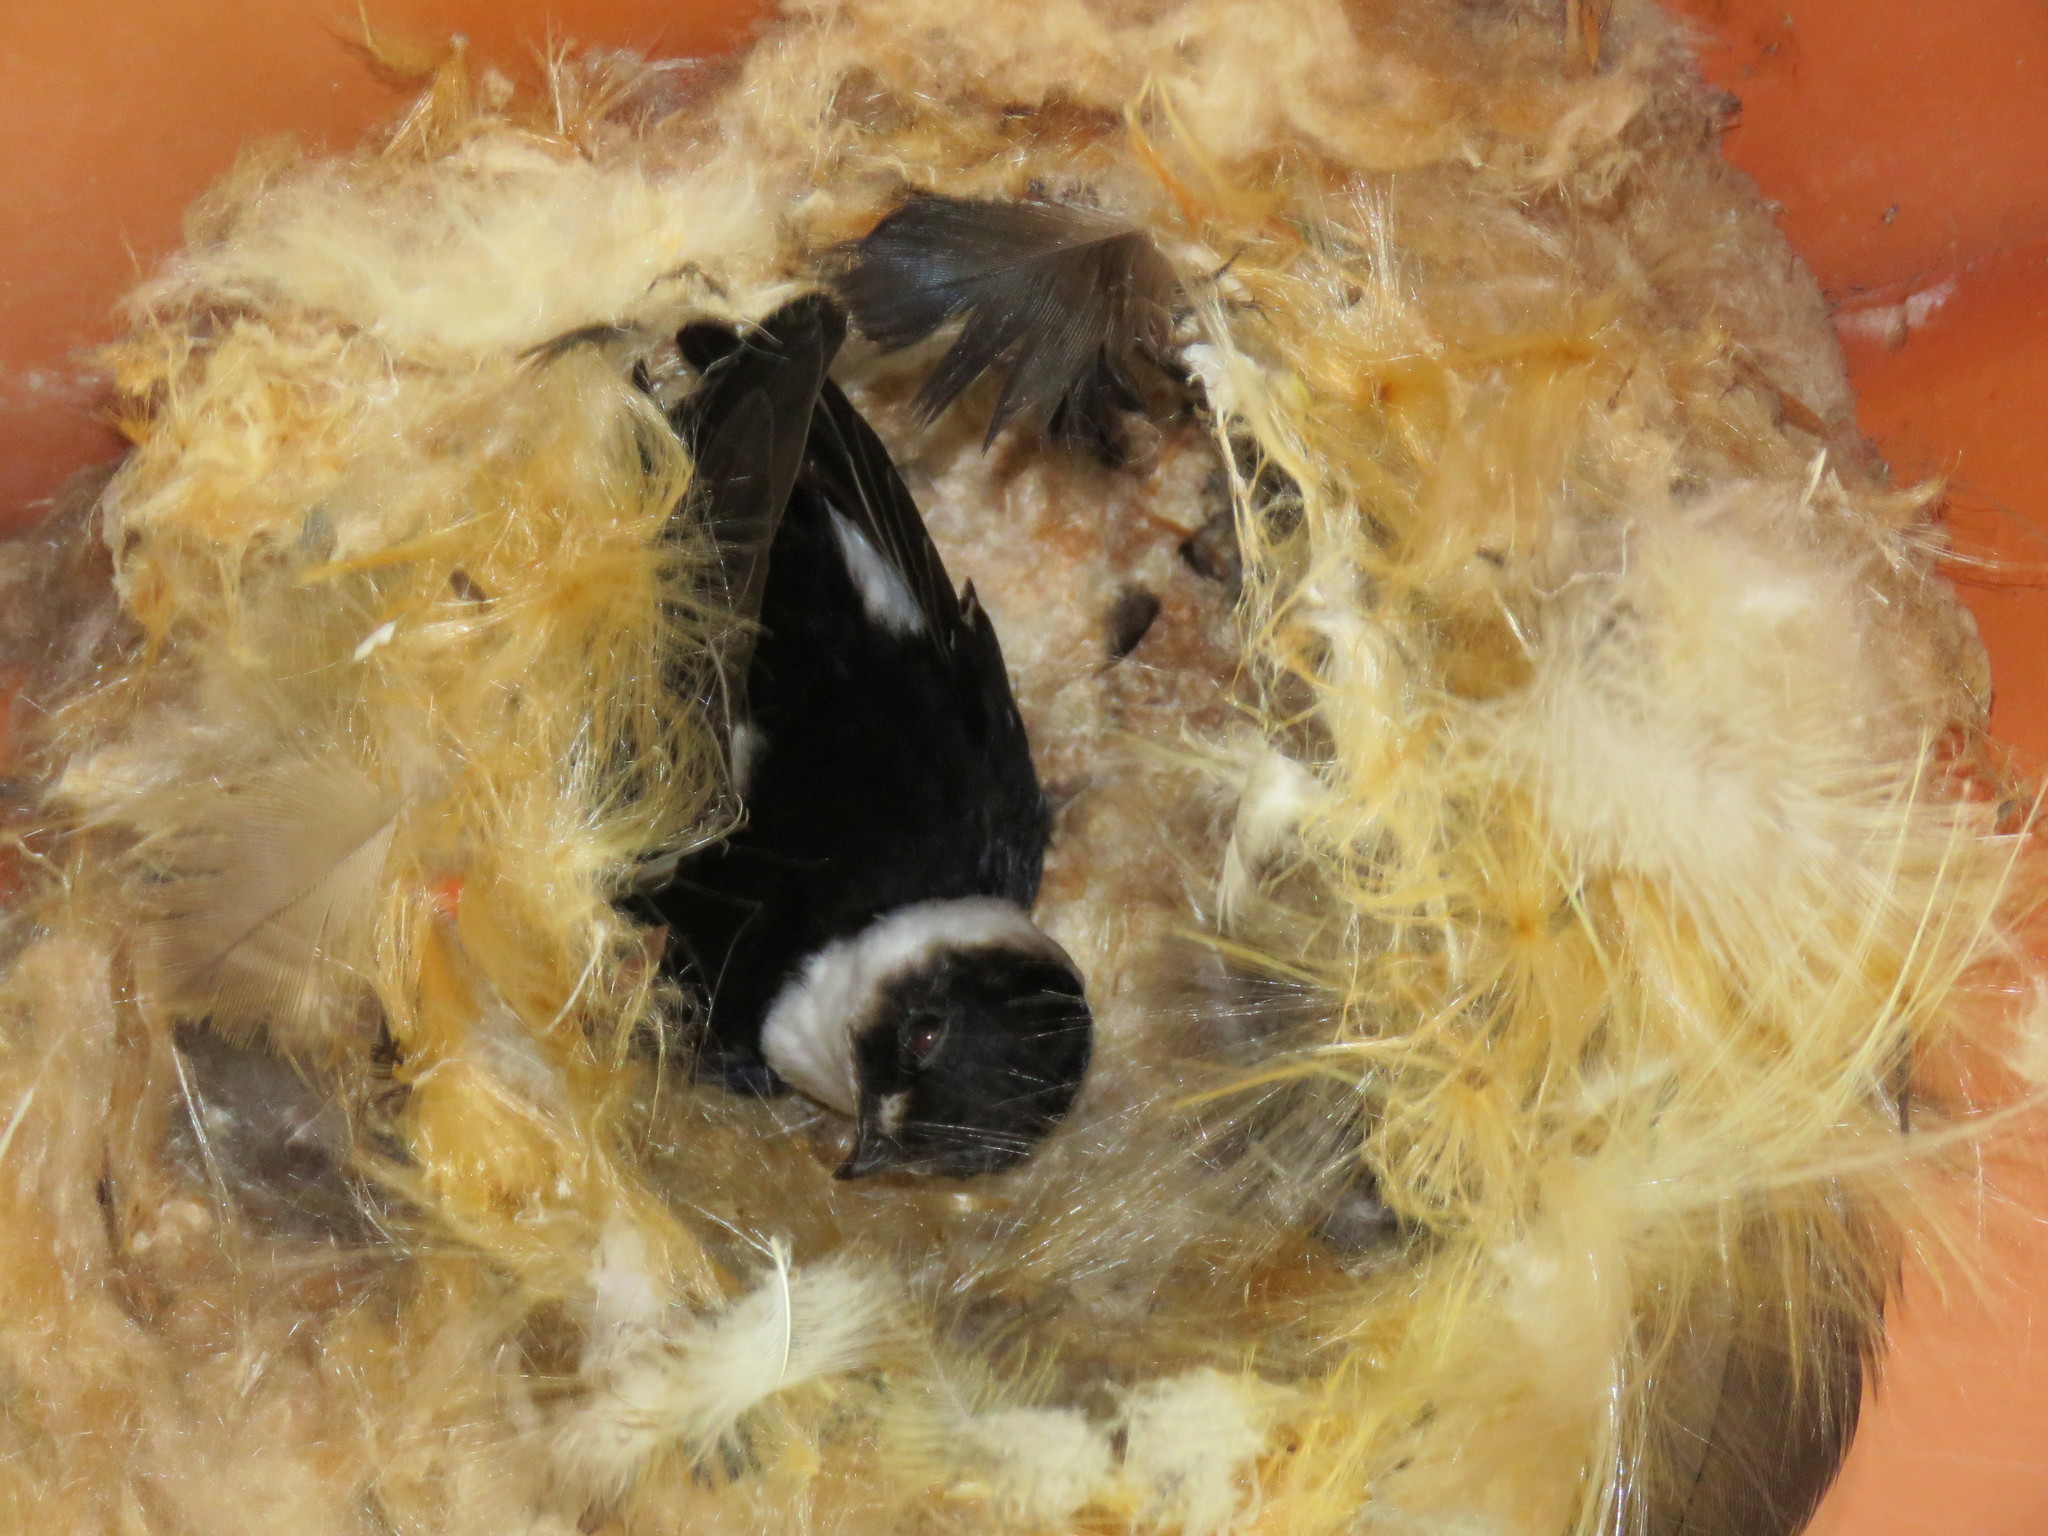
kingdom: Animalia
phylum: Chordata
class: Aves
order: Apodiformes
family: Apodidae
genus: Panyptila
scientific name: Panyptila cayennensis
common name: Lesser swallow-tailed swift
